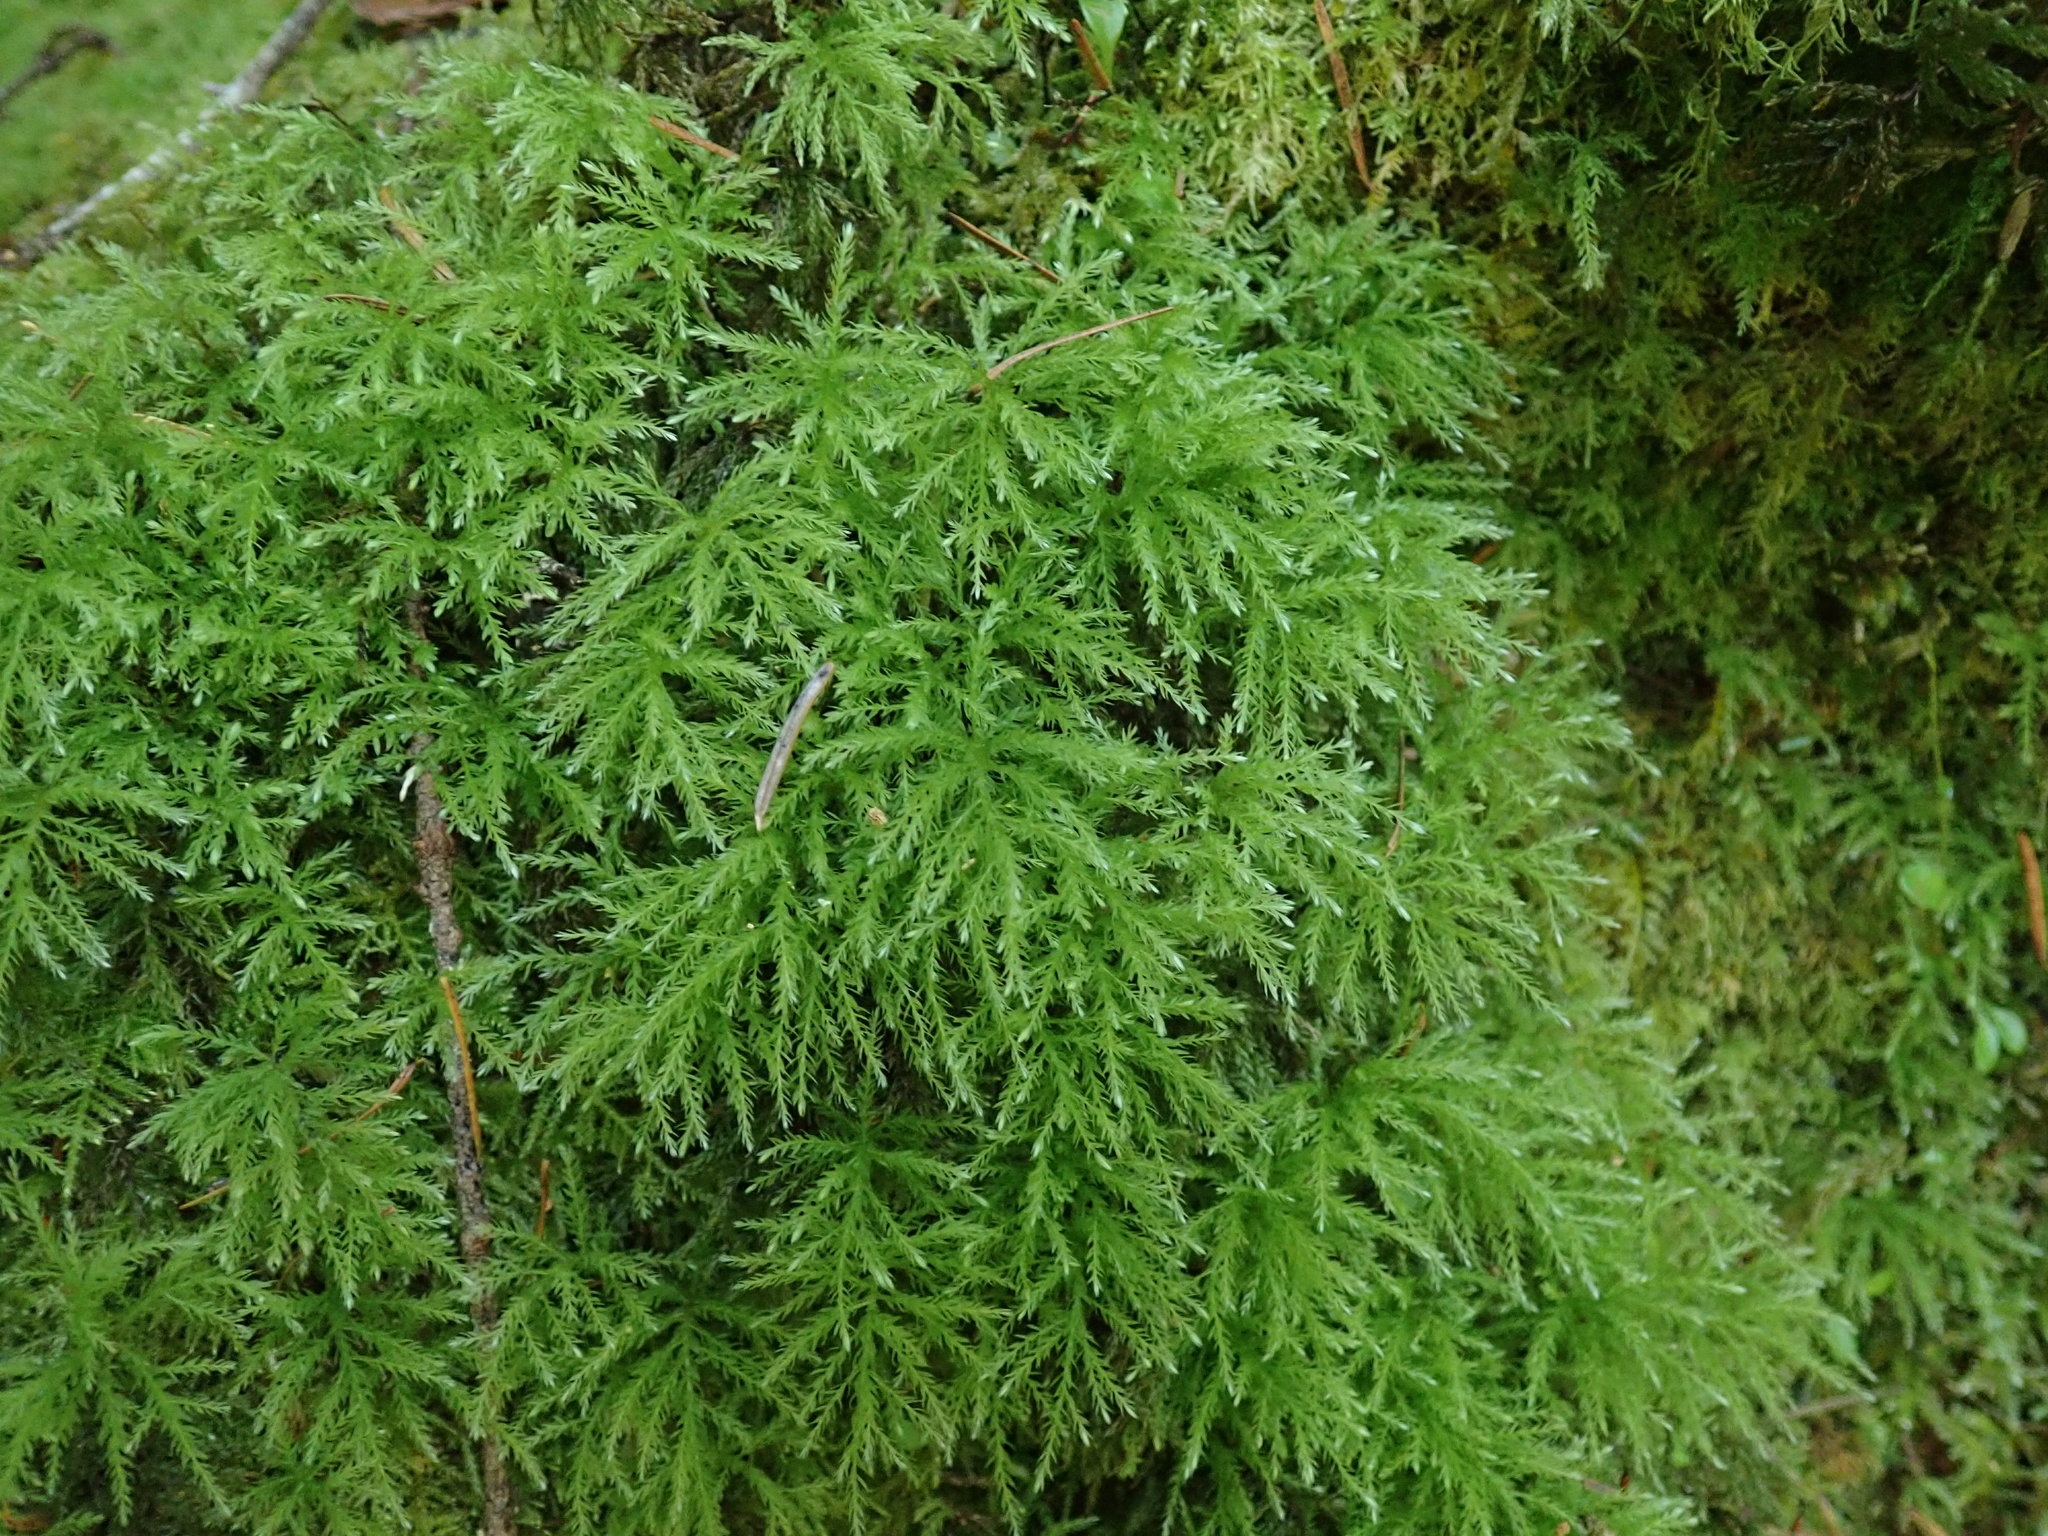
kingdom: Plantae
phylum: Bryophyta
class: Bryopsida
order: Bryales
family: Mniaceae
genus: Leucolepis
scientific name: Leucolepis acanthoneura
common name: Leucolepis umbrella moss
